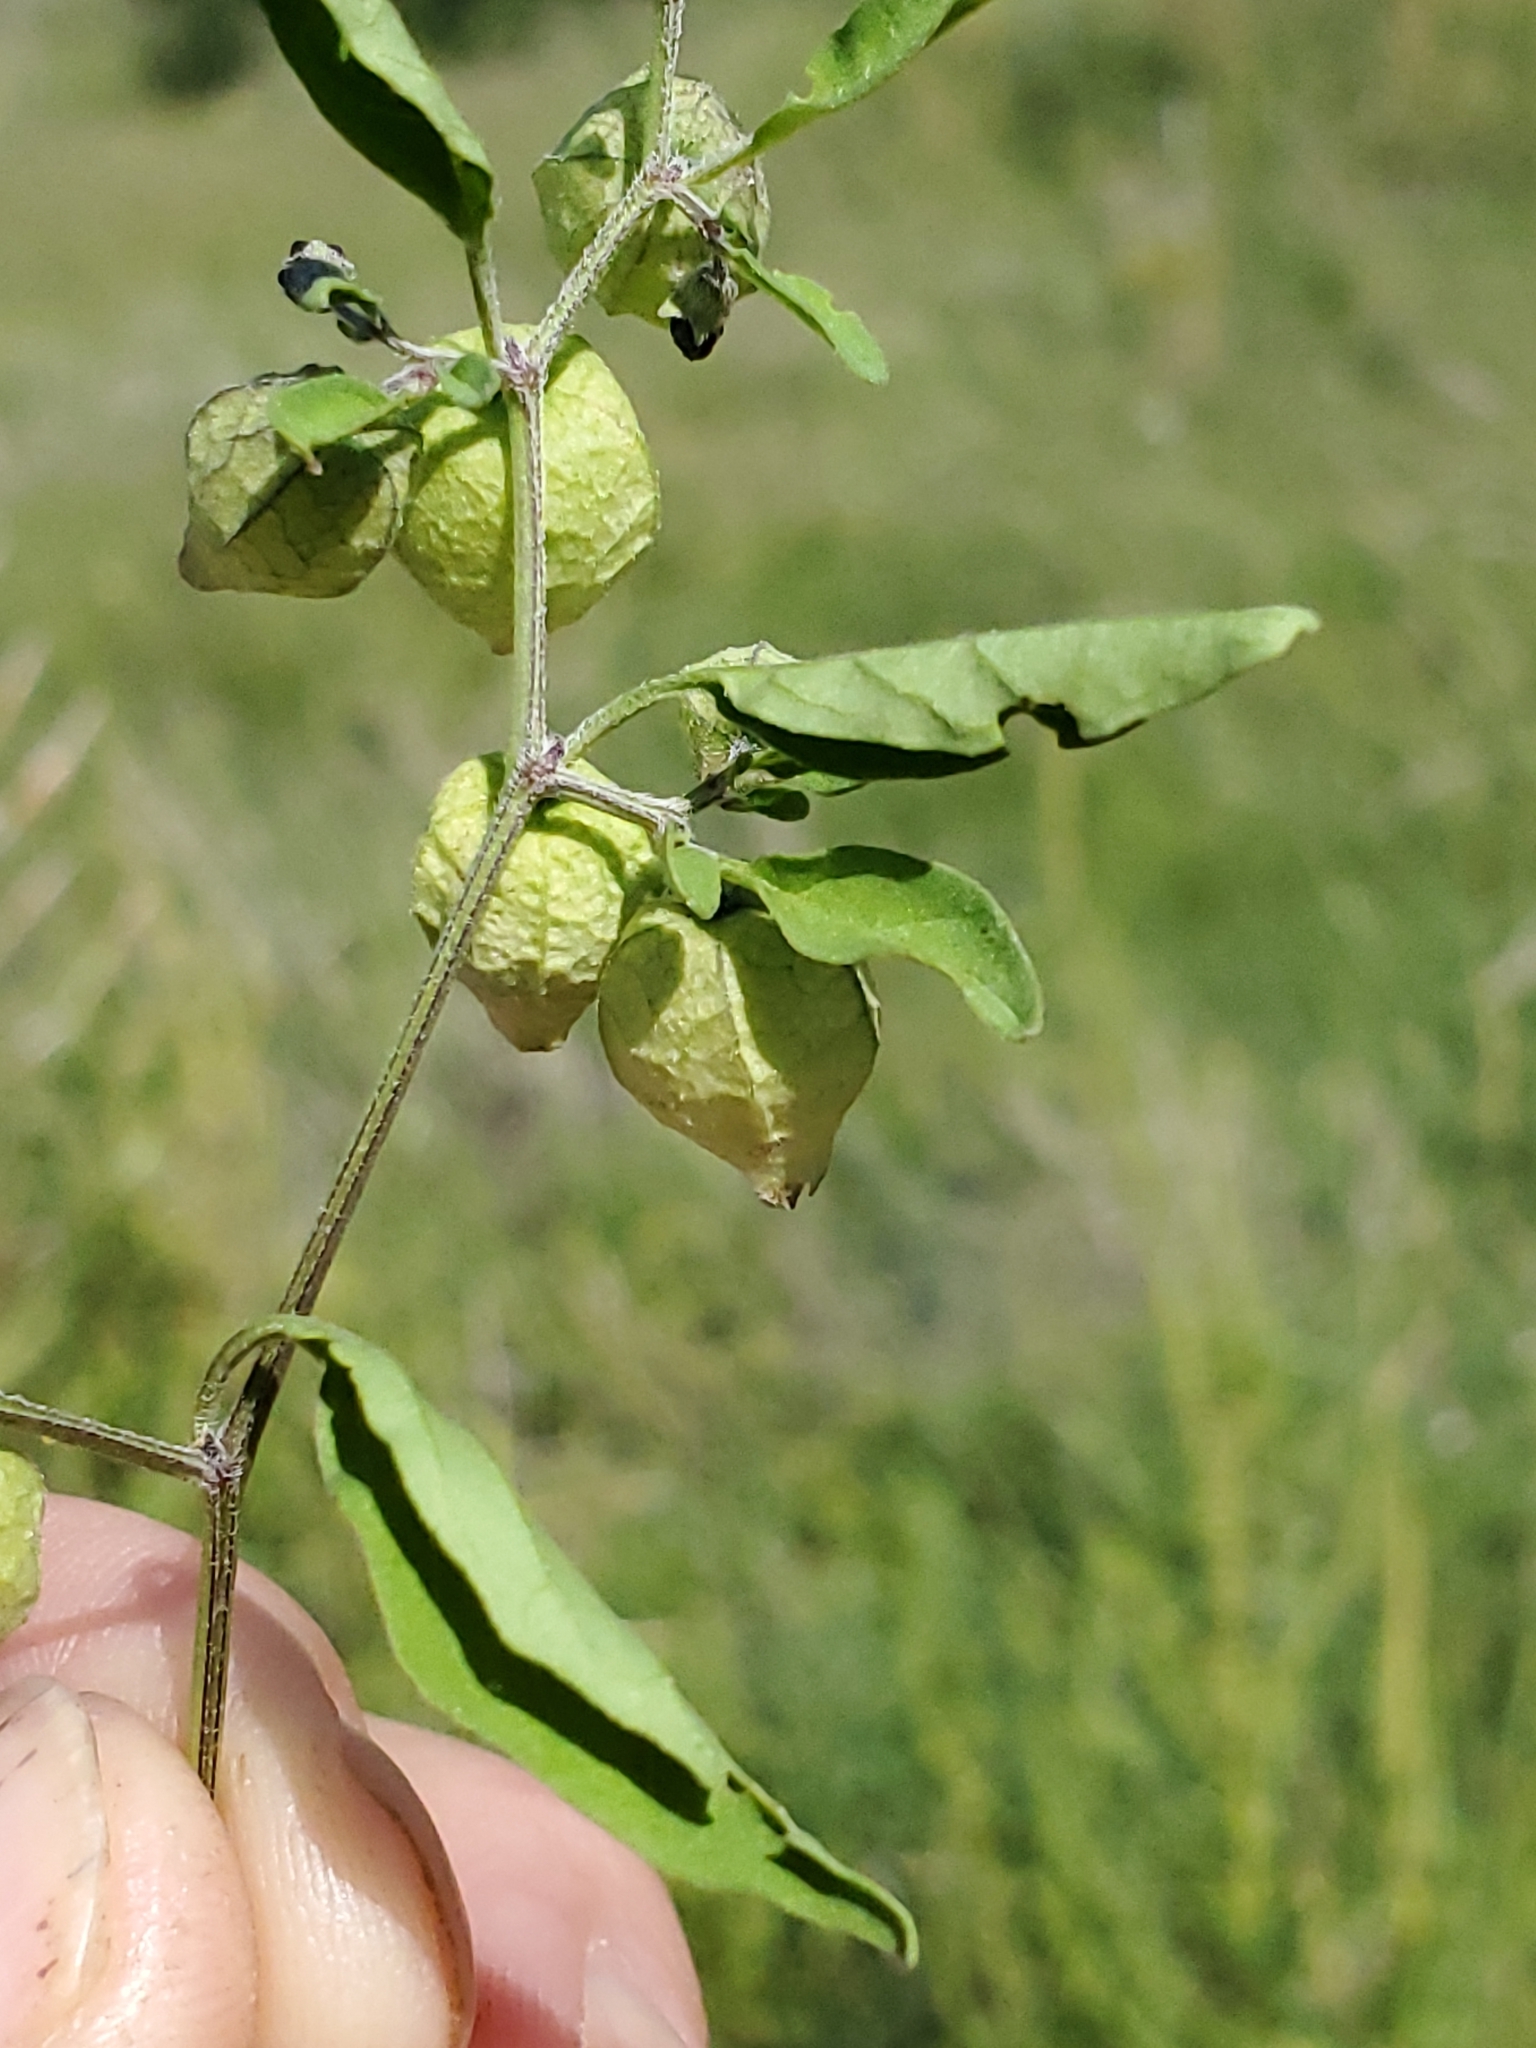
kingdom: Plantae
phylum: Tracheophyta
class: Magnoliopsida
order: Solanales
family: Solanaceae
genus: Physalis
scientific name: Physalis solanacea
